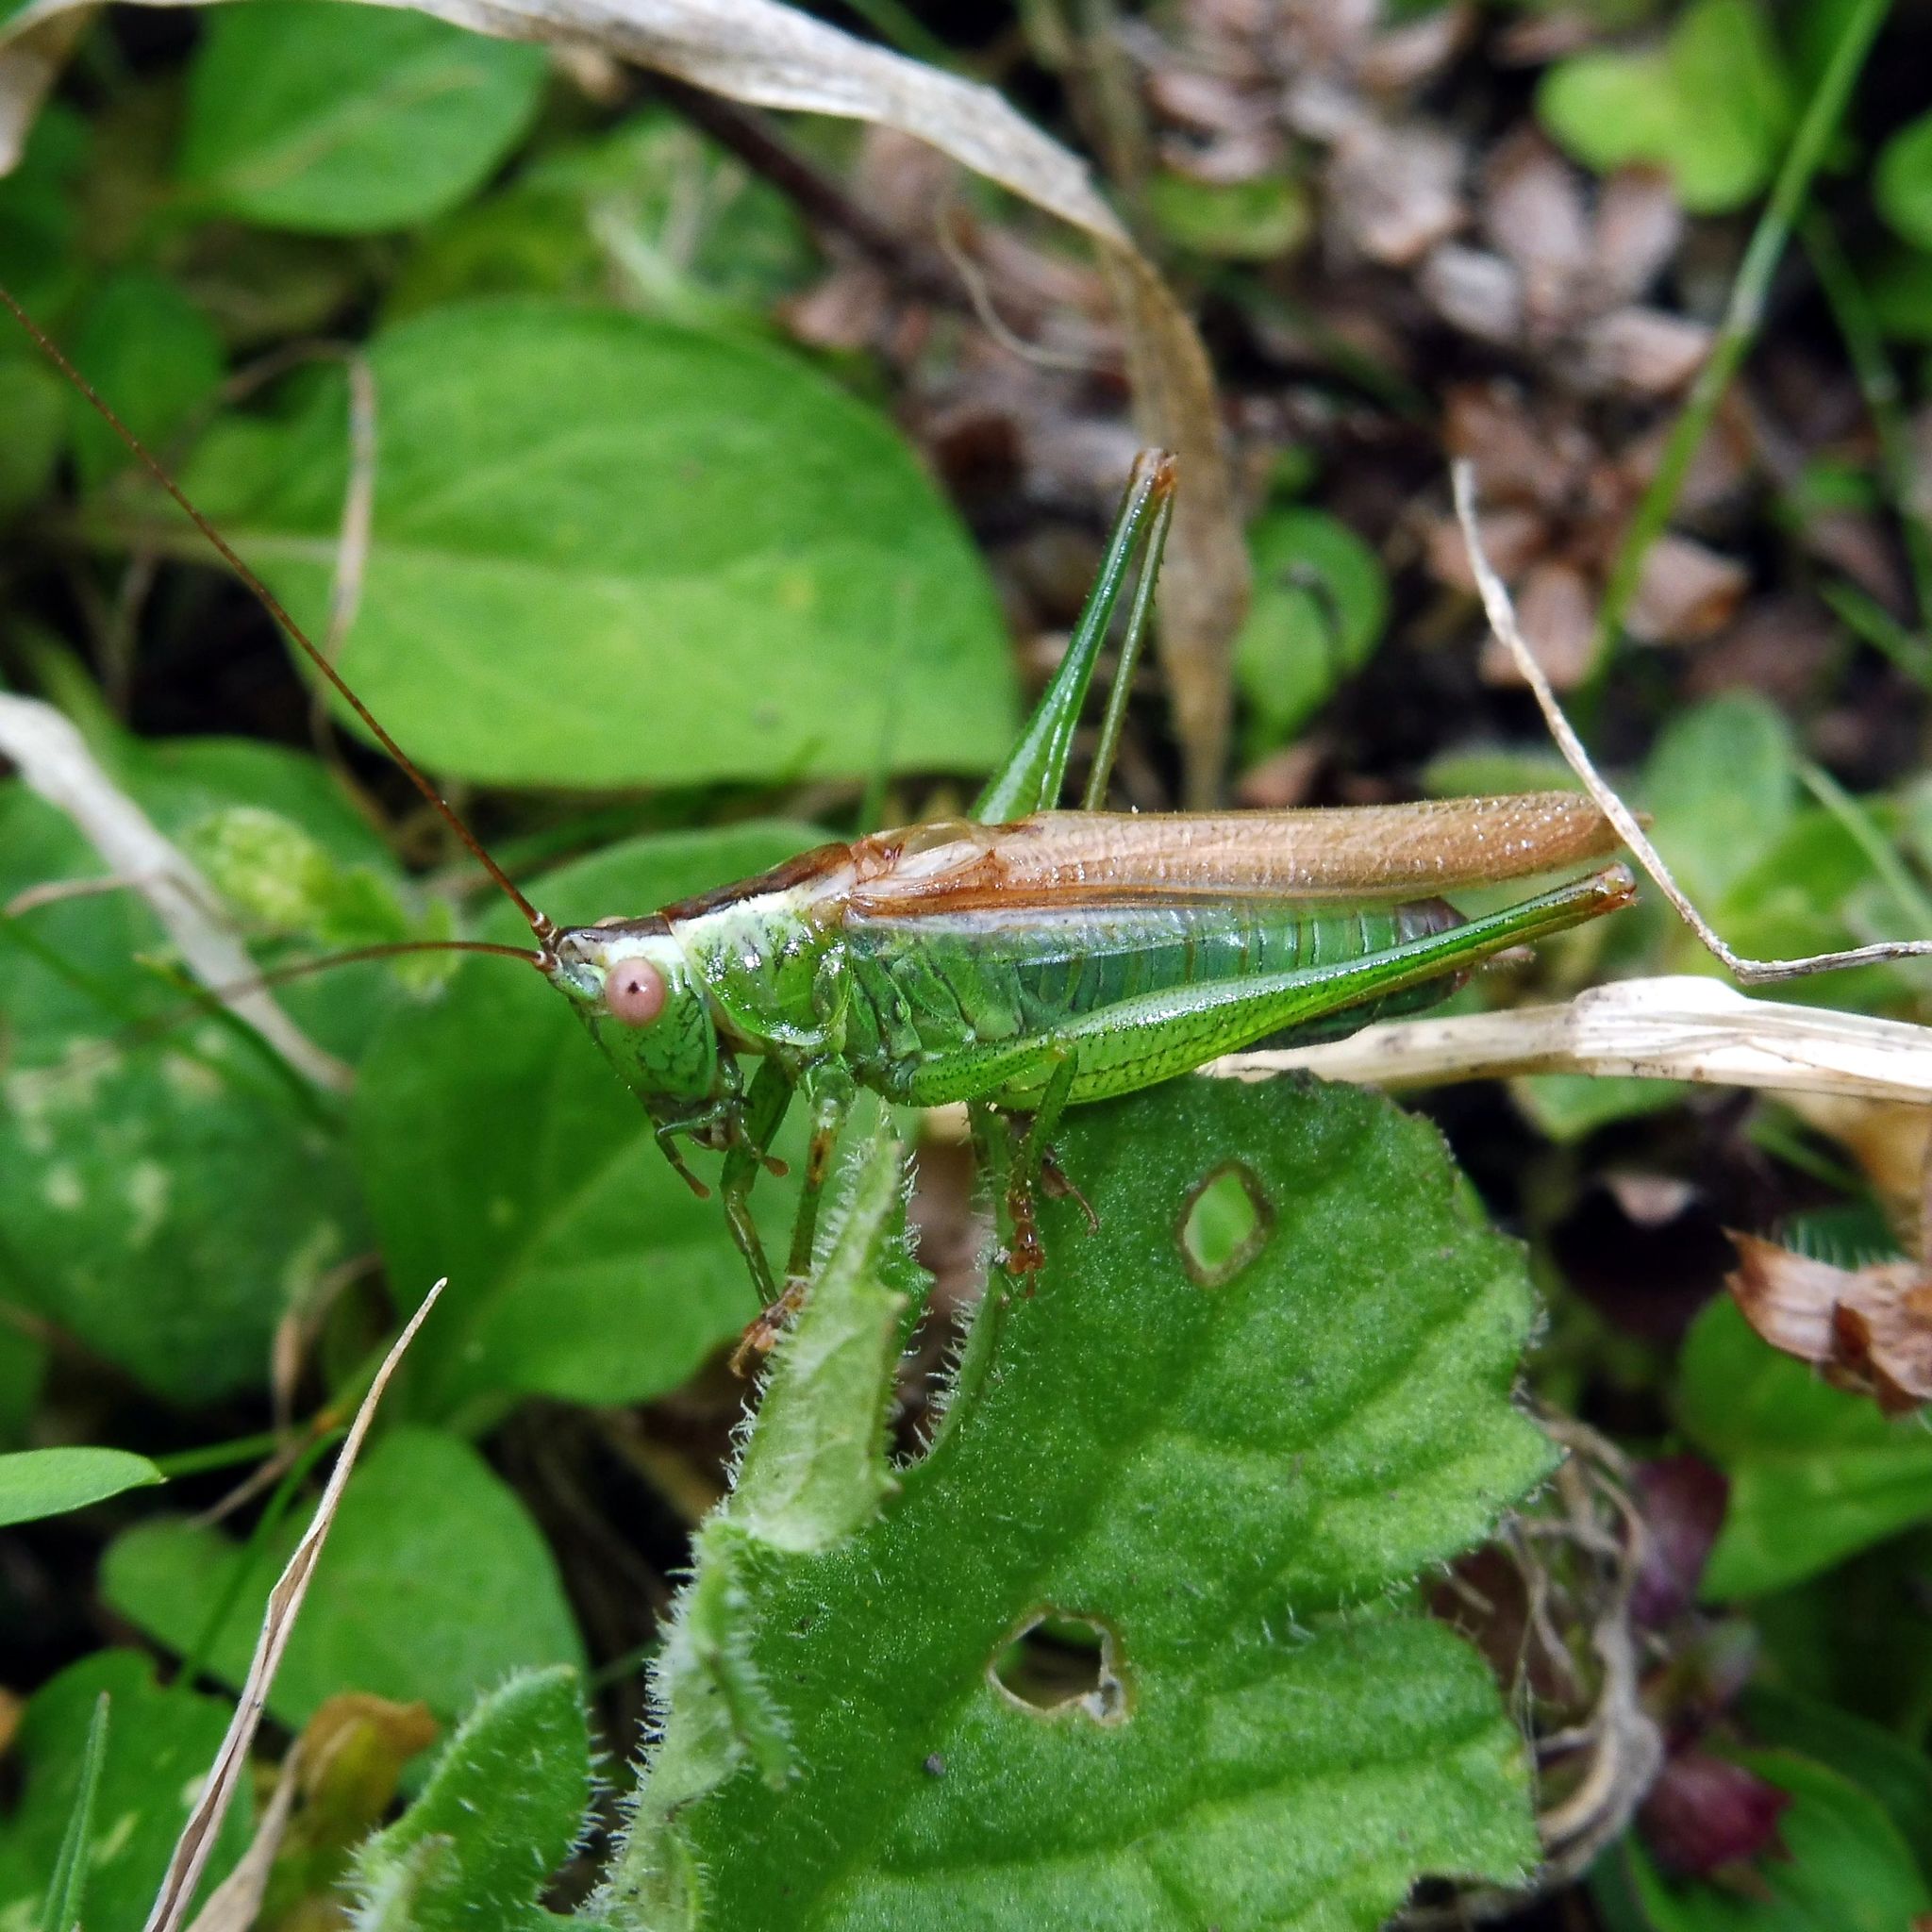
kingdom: Animalia
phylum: Arthropoda
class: Insecta
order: Orthoptera
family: Tettigoniidae
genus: Conocephalus
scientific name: Conocephalus fuscus
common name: Long-winged conehead
